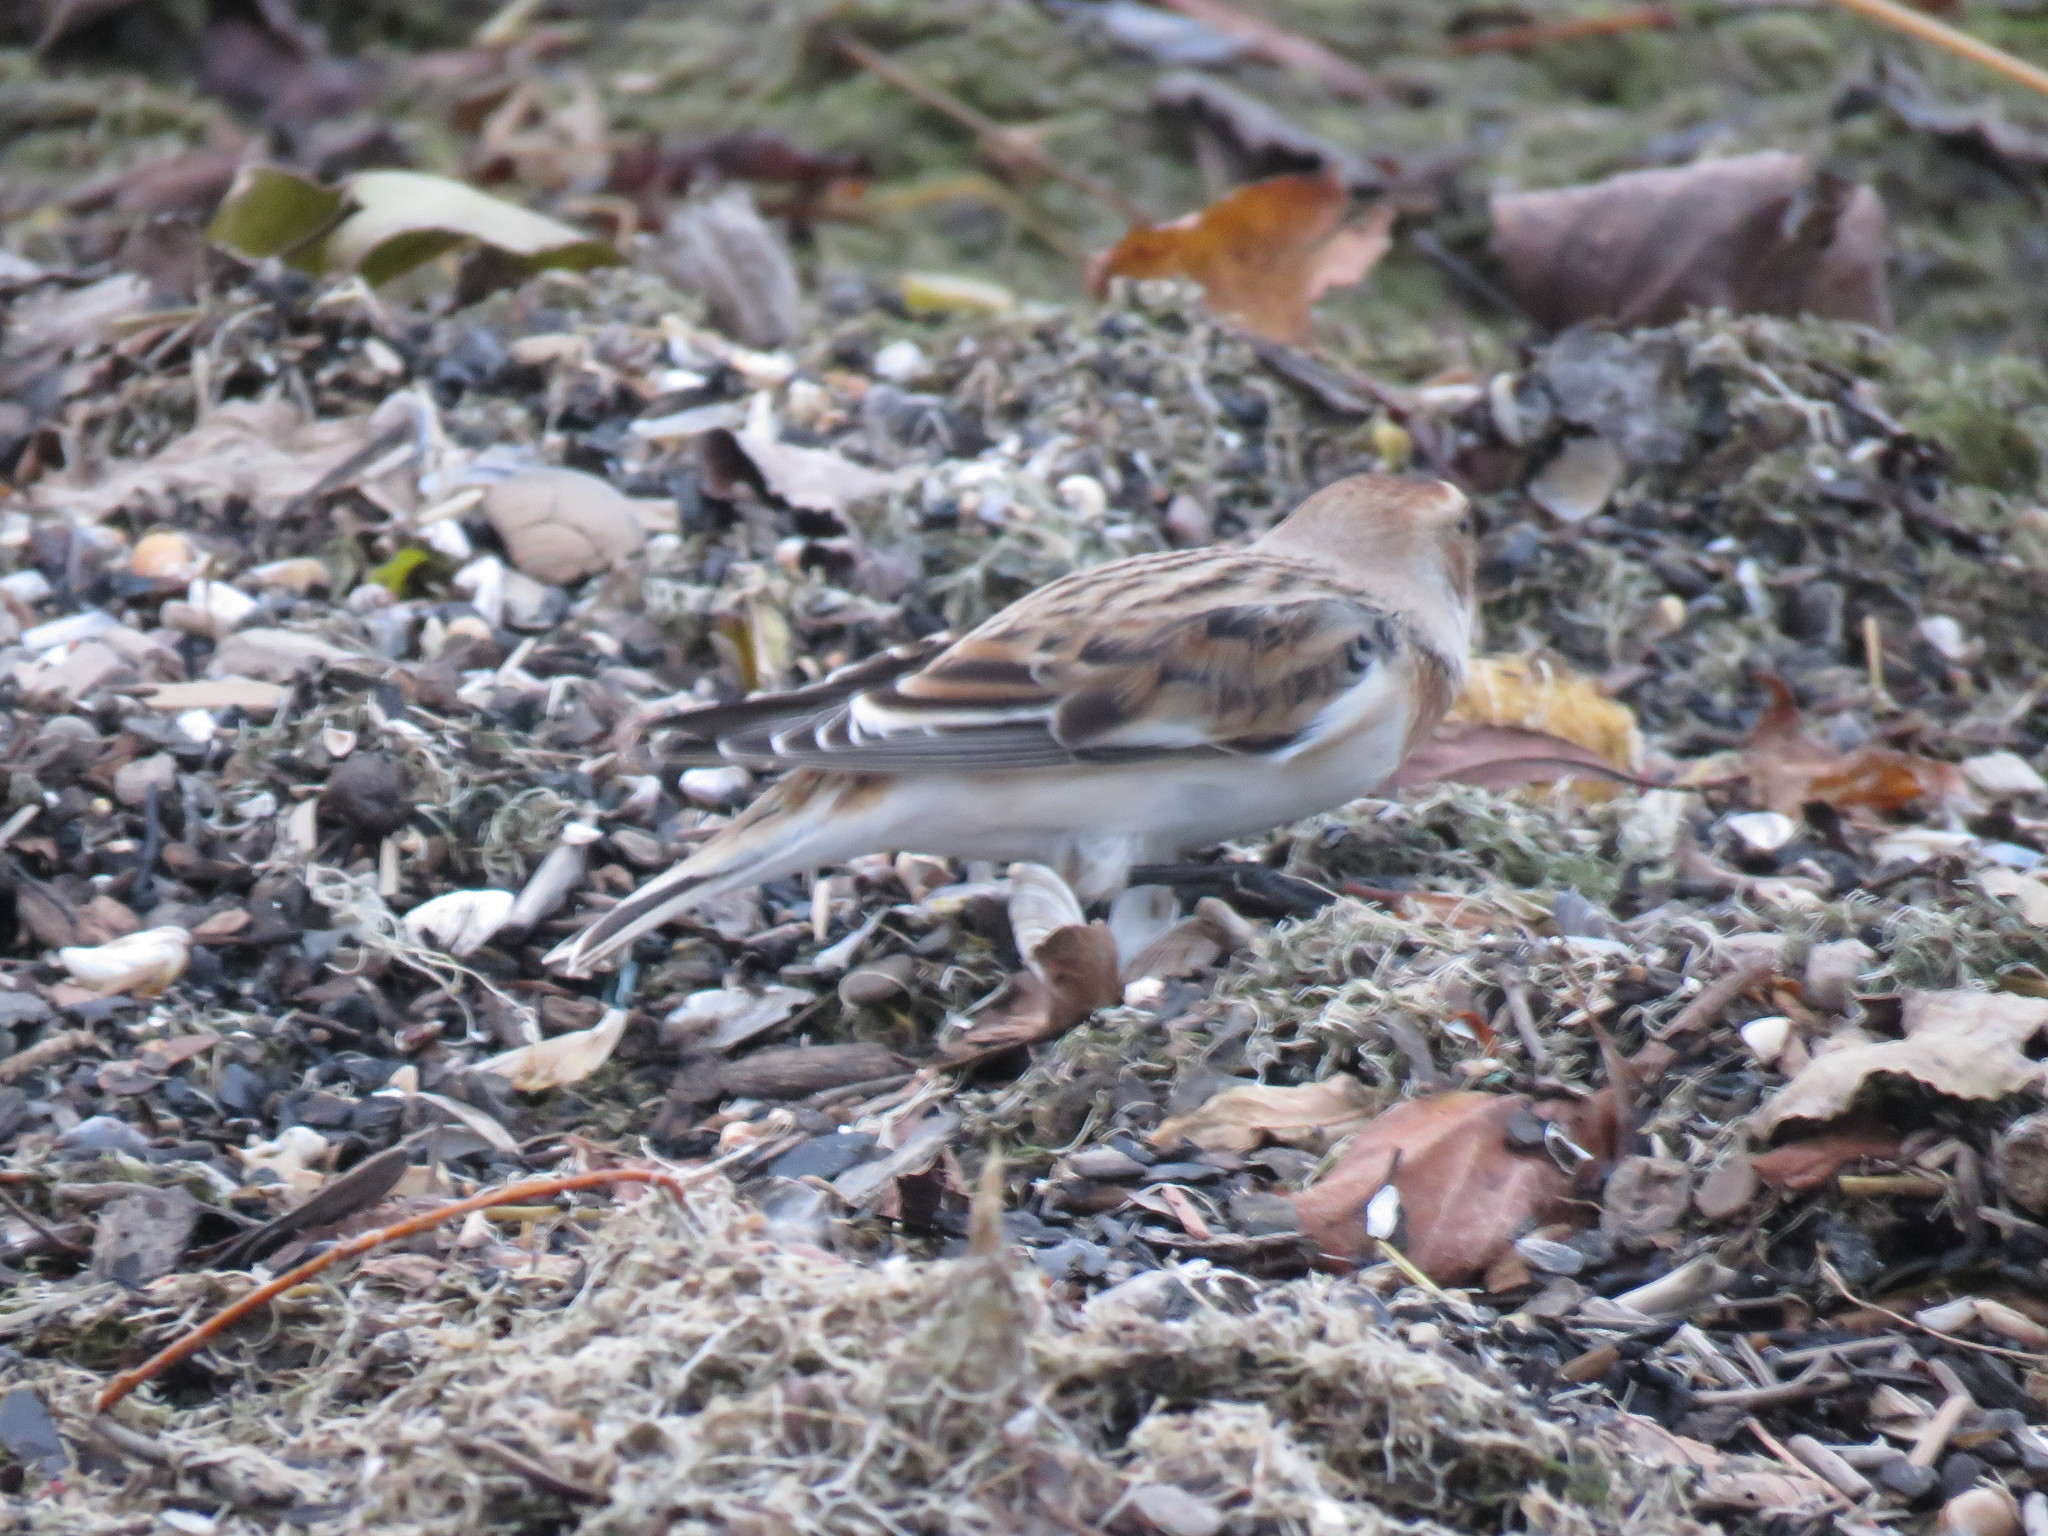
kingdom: Animalia
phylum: Chordata
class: Aves
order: Passeriformes
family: Calcariidae
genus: Plectrophenax
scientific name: Plectrophenax nivalis
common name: Snow bunting
